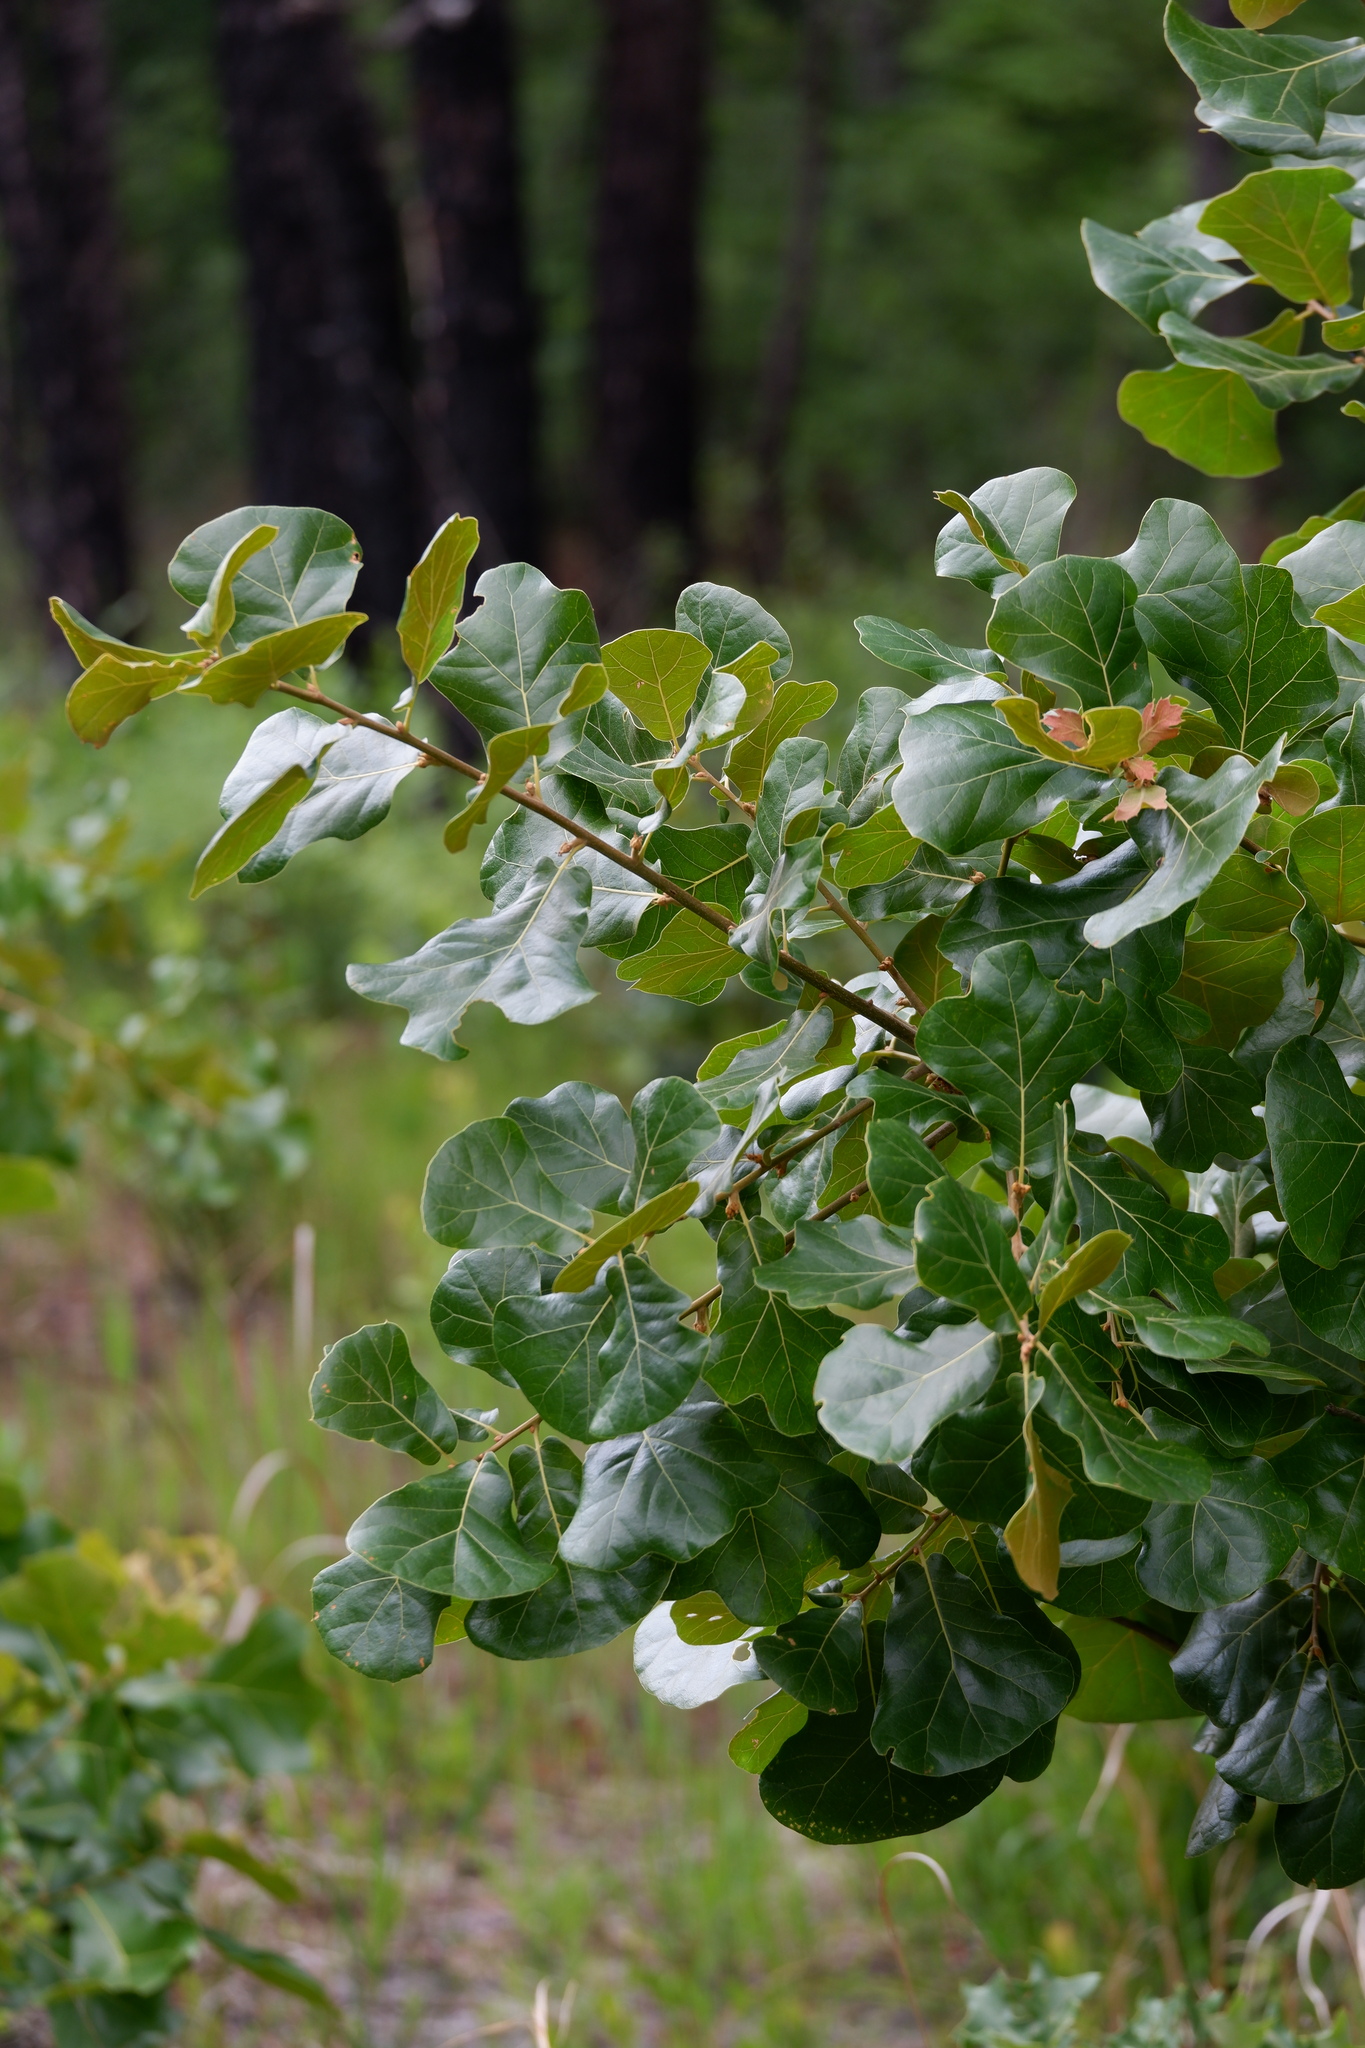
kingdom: Plantae
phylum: Tracheophyta
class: Magnoliopsida
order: Fagales
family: Fagaceae
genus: Quercus
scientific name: Quercus marilandica
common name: Blackjack oak
